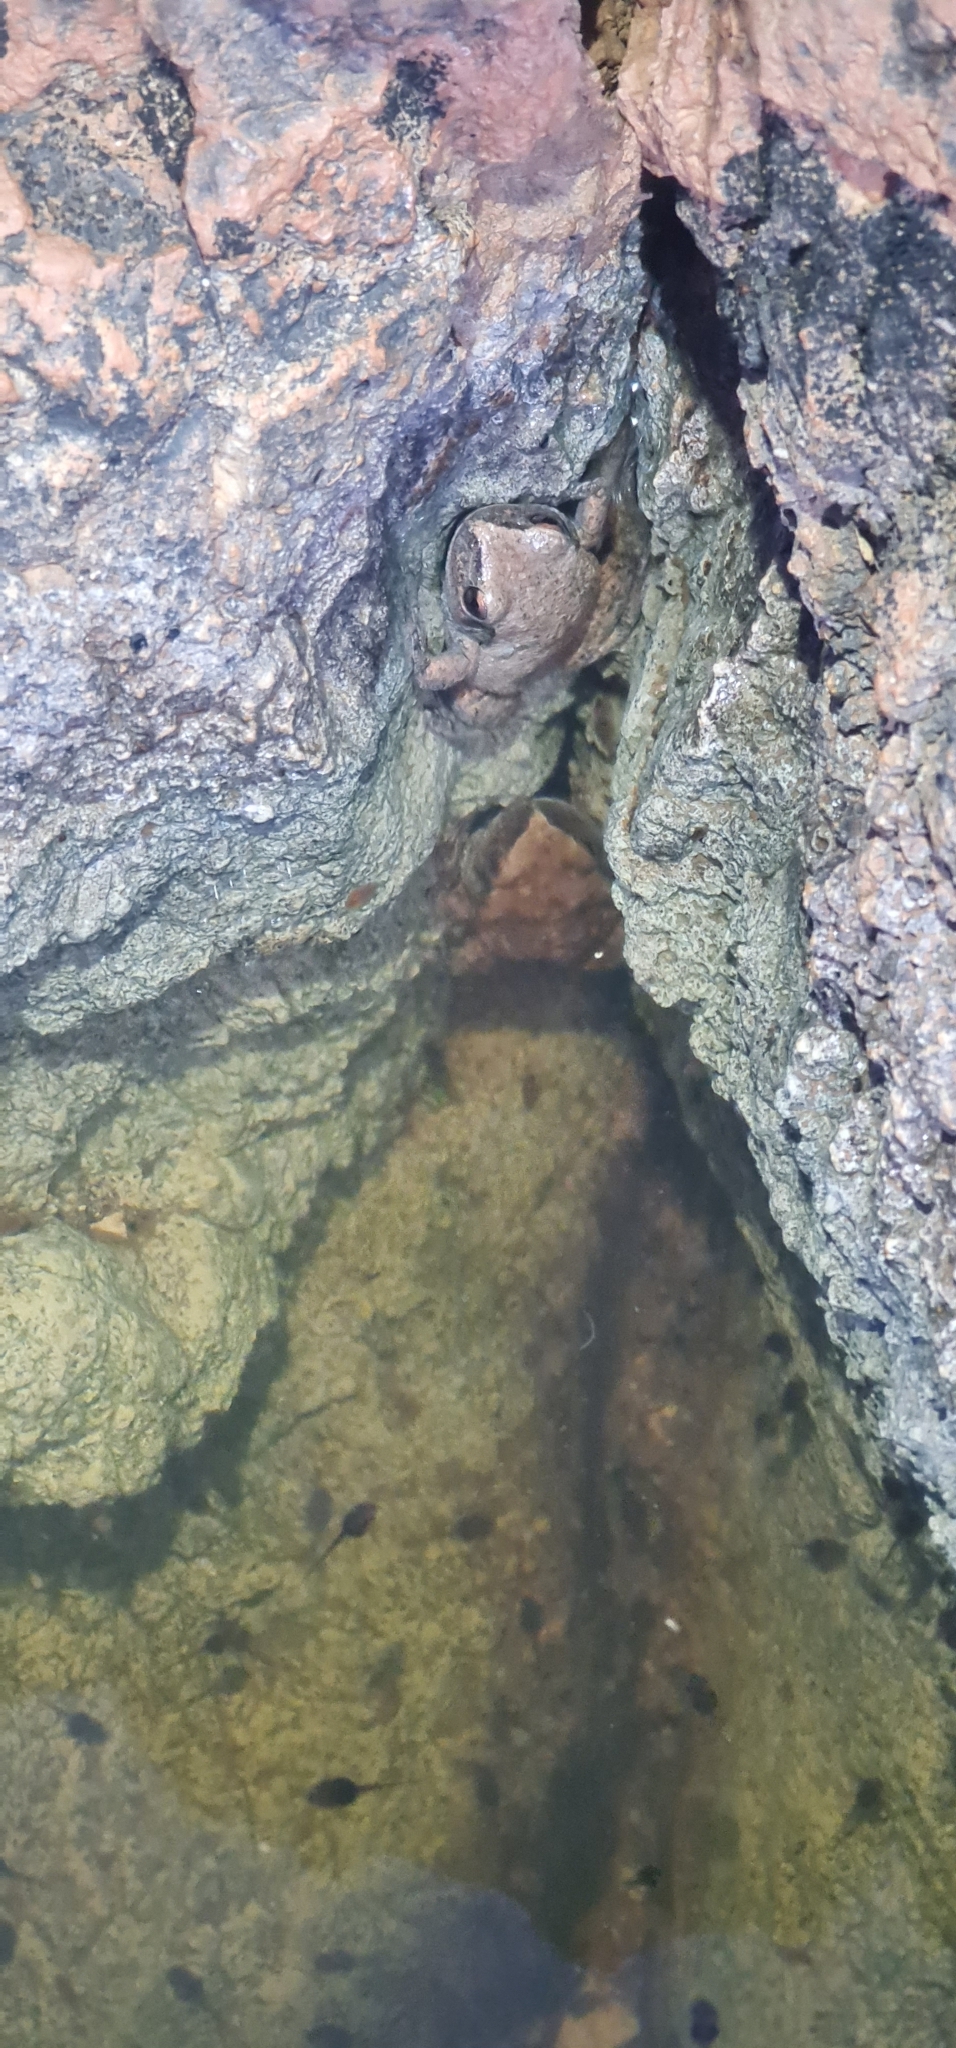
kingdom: Animalia
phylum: Chordata
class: Amphibia
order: Anura
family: Pelodryadidae
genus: Litoria
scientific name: Litoria rubella
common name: Desert tree frog
